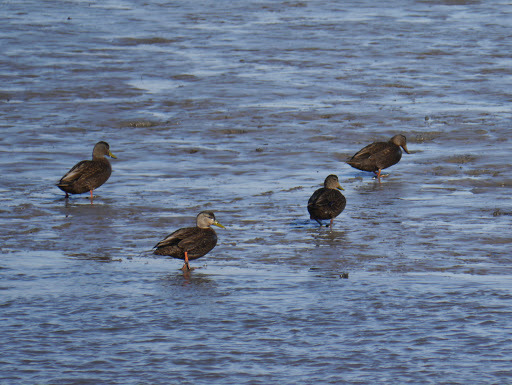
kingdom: Animalia
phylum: Chordata
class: Aves
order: Anseriformes
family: Anatidae
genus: Anas
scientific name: Anas rubripes
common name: American black duck
